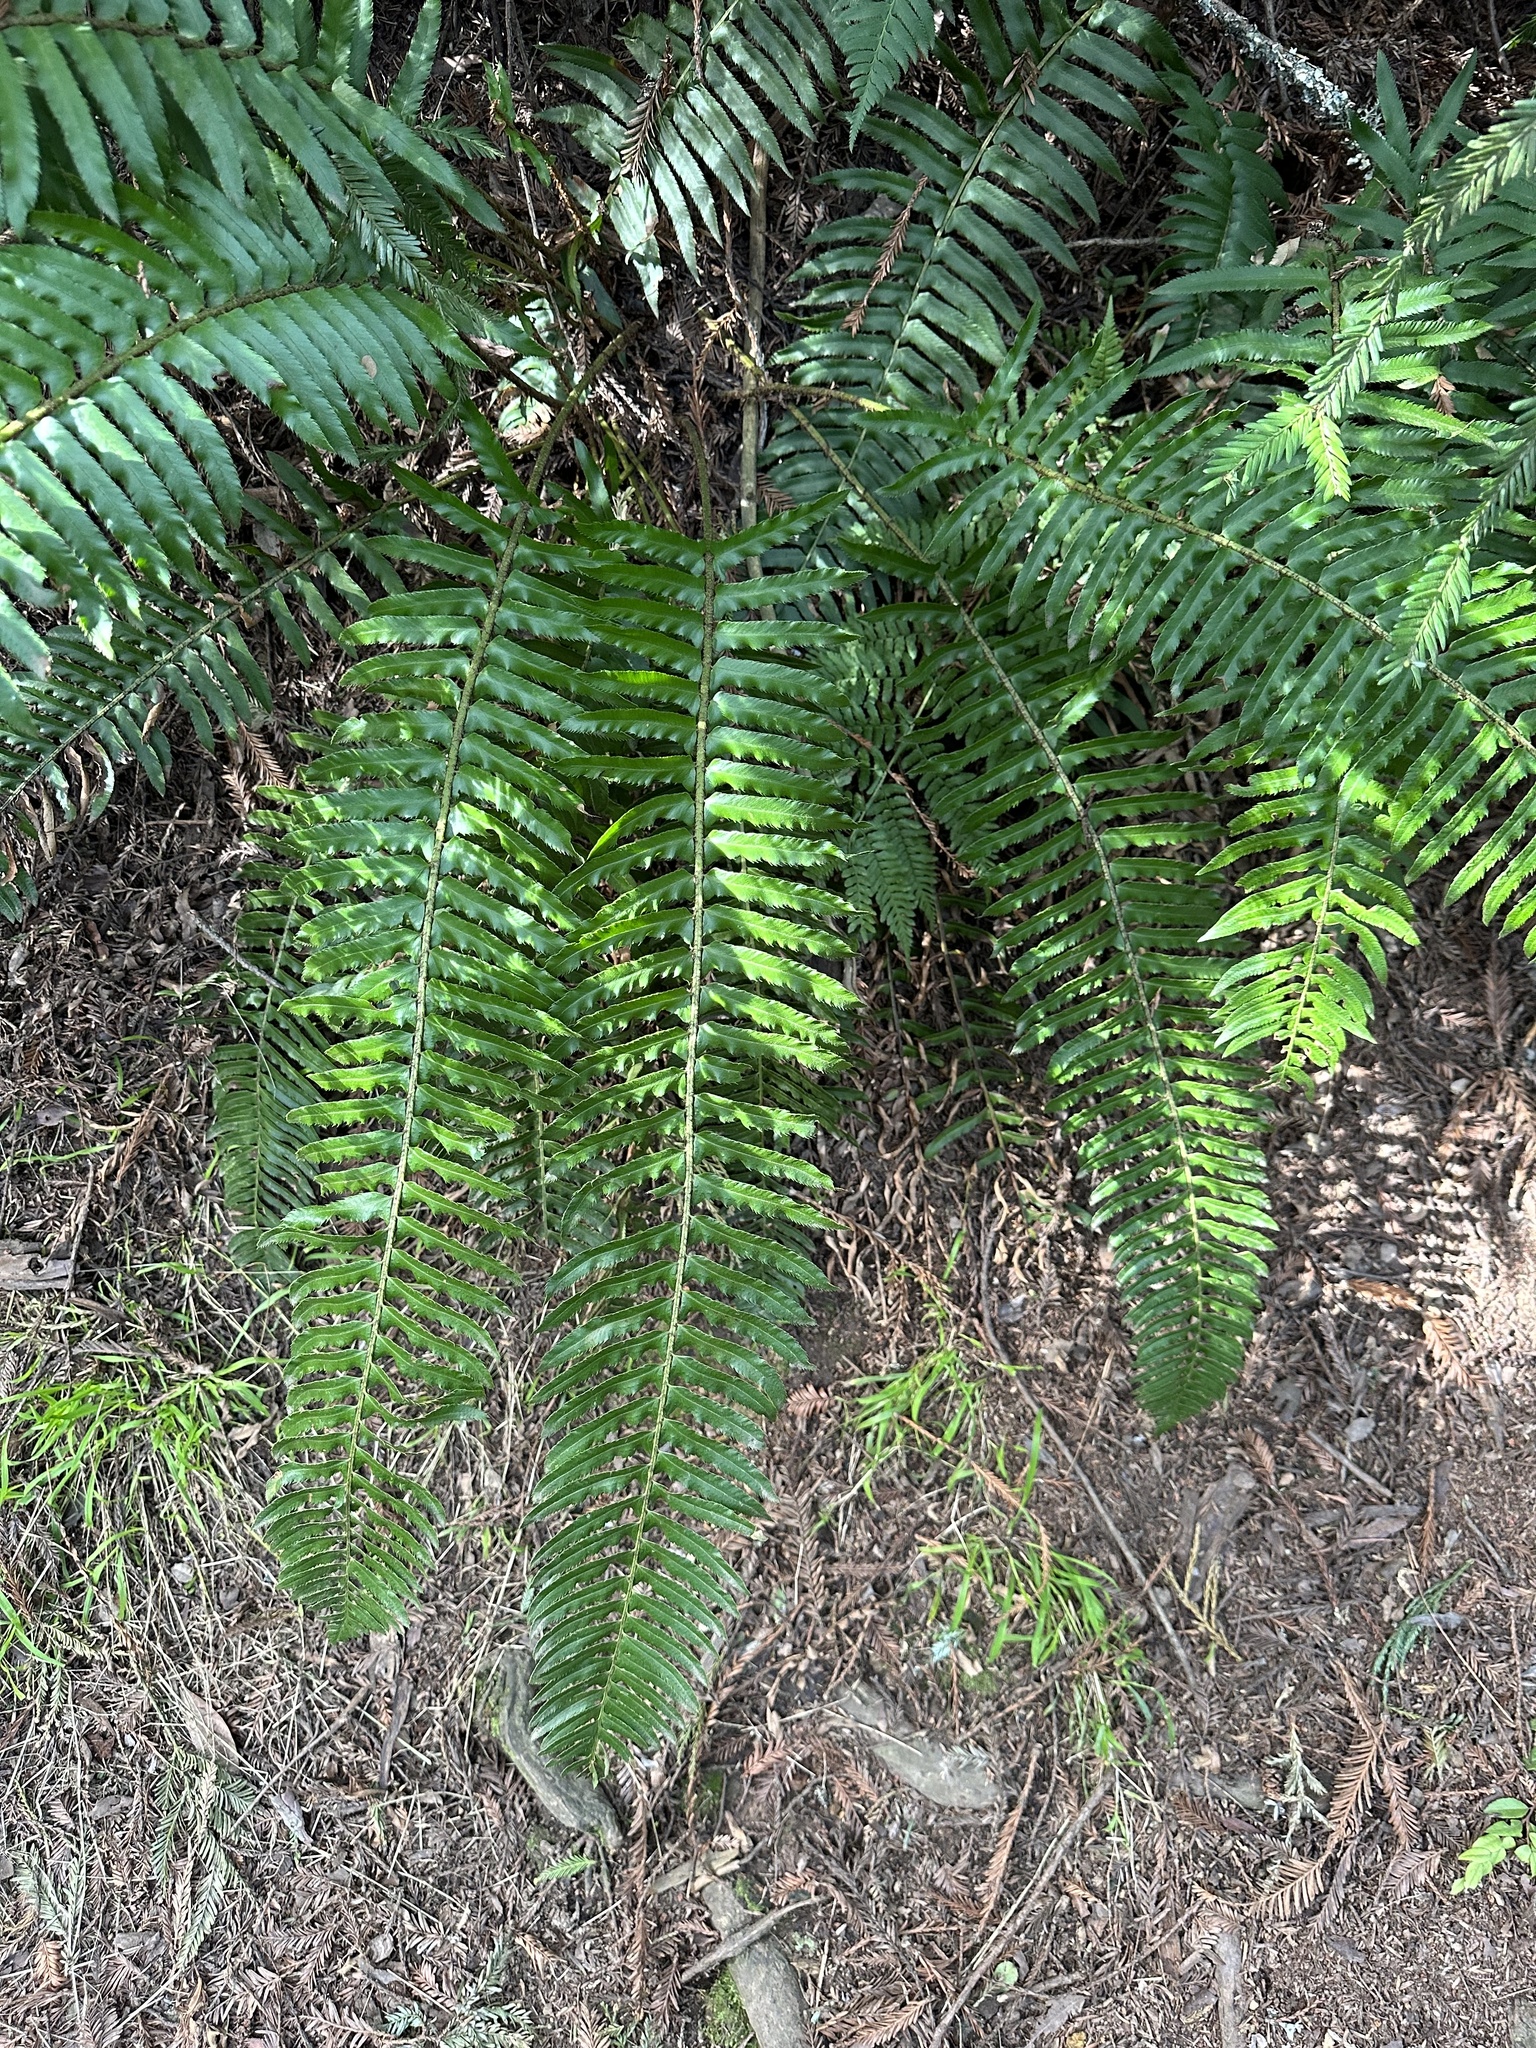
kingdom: Plantae
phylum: Tracheophyta
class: Polypodiopsida
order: Polypodiales
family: Dryopteridaceae
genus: Polystichum
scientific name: Polystichum munitum
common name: Western sword-fern
